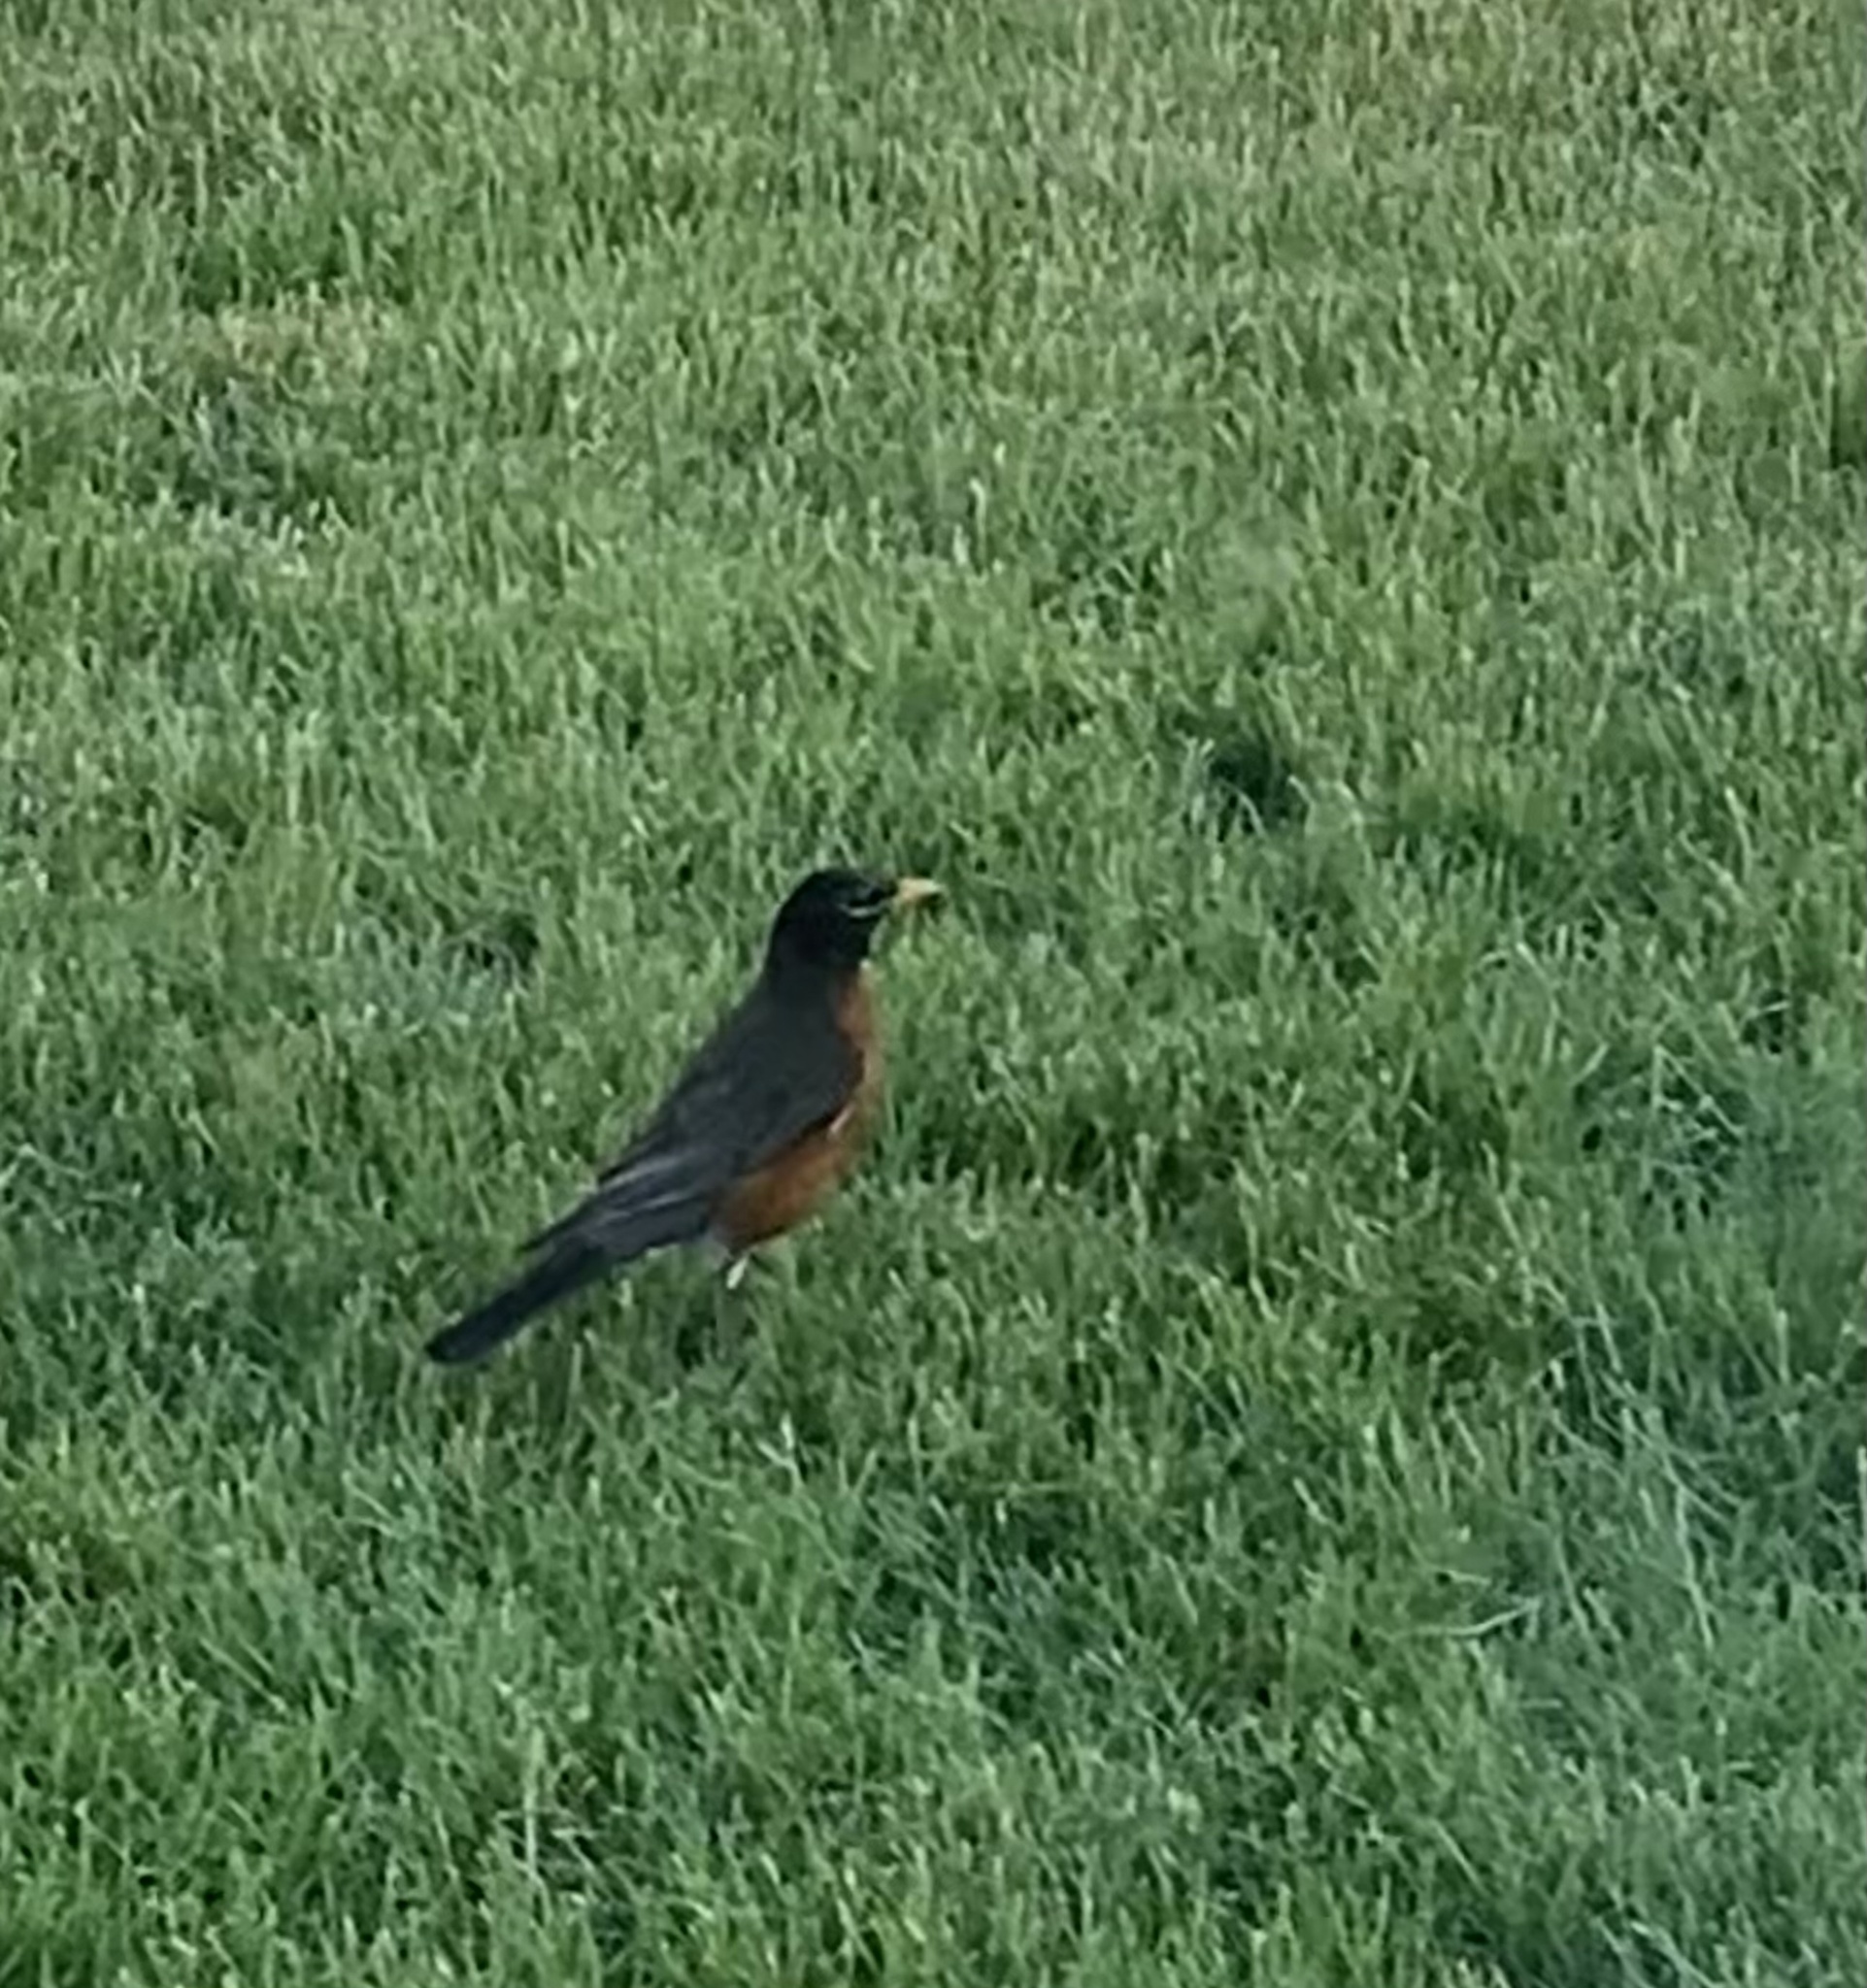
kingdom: Animalia
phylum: Chordata
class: Aves
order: Passeriformes
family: Turdidae
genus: Turdus
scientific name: Turdus migratorius
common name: American robin
